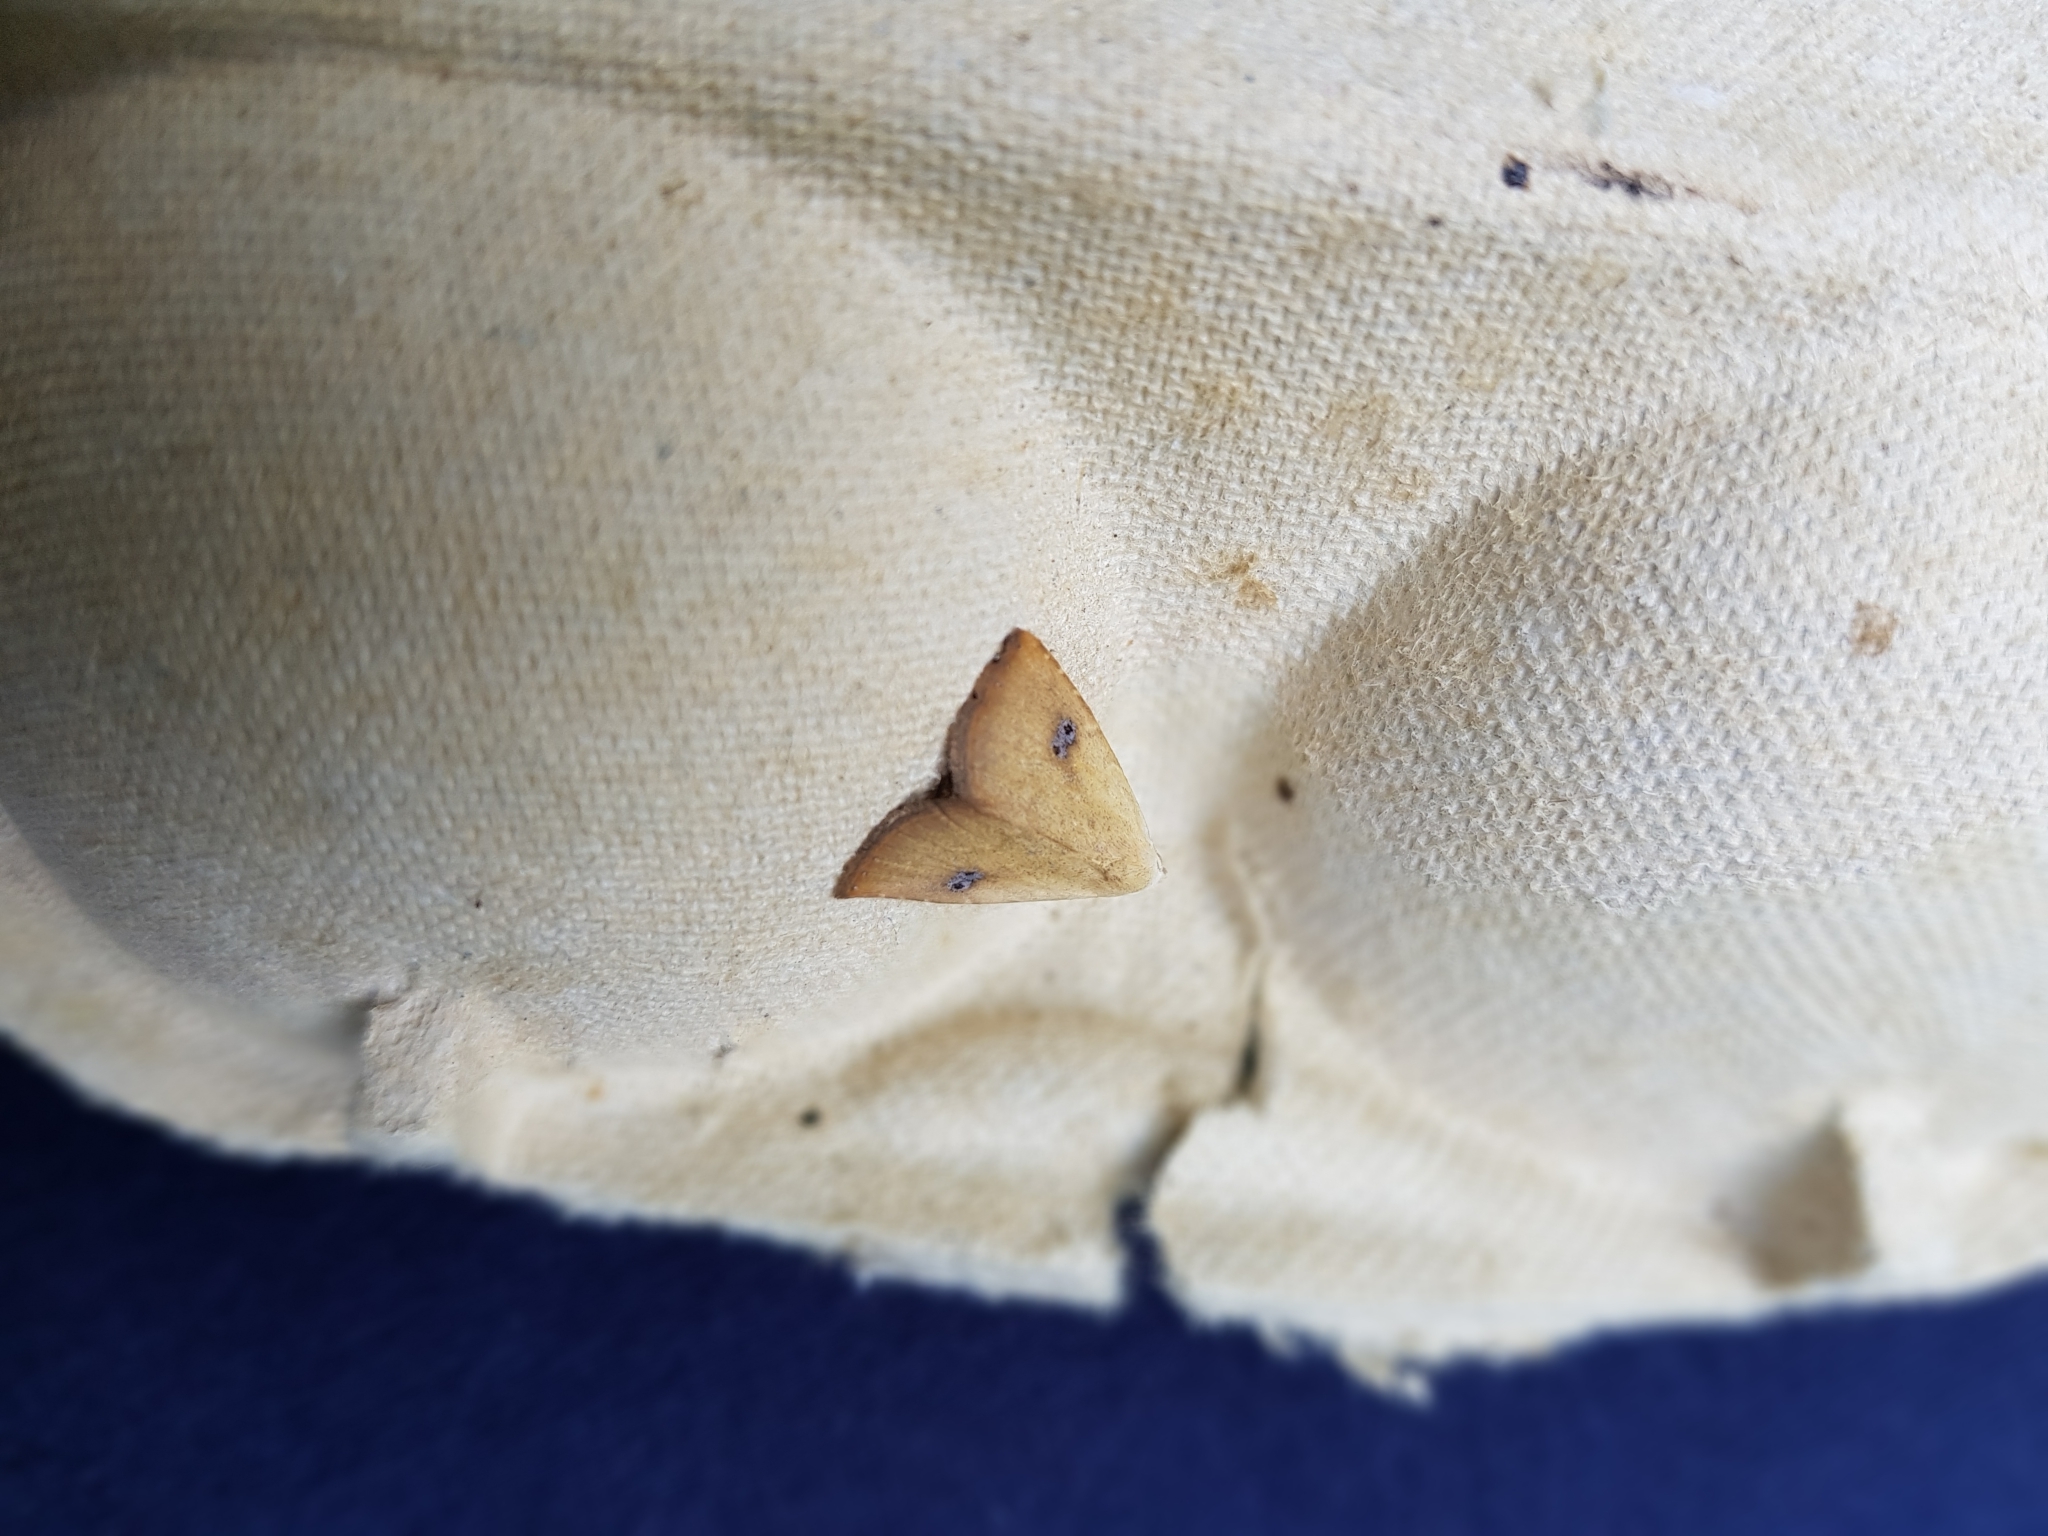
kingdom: Animalia
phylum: Arthropoda
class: Insecta
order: Lepidoptera
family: Erebidae
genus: Rivula
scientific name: Rivula sericealis
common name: Straw dot
